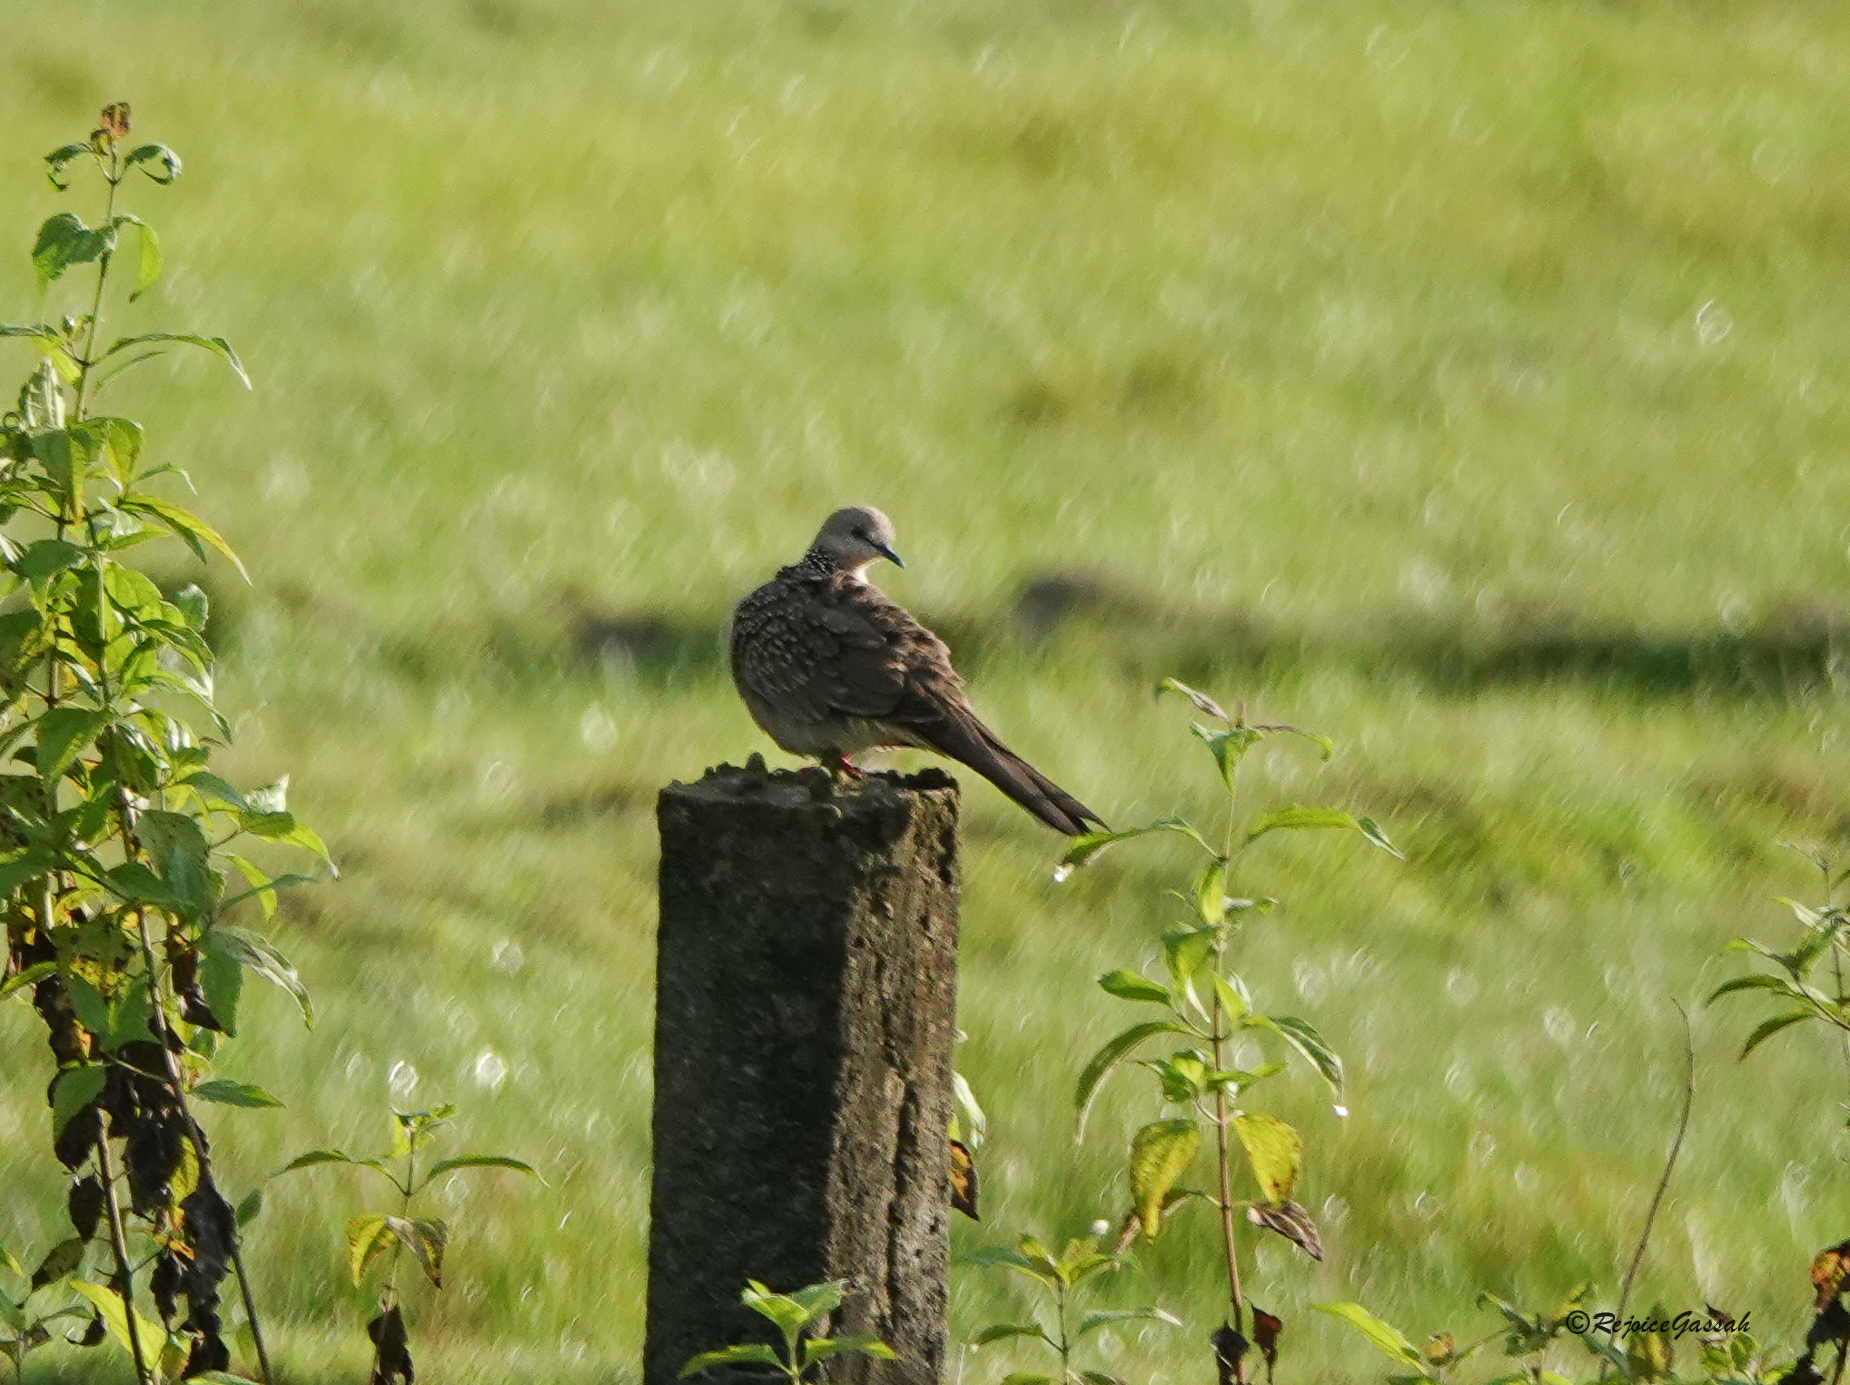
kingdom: Animalia
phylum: Chordata
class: Aves
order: Columbiformes
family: Columbidae
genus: Spilopelia
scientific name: Spilopelia chinensis
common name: Spotted dove
